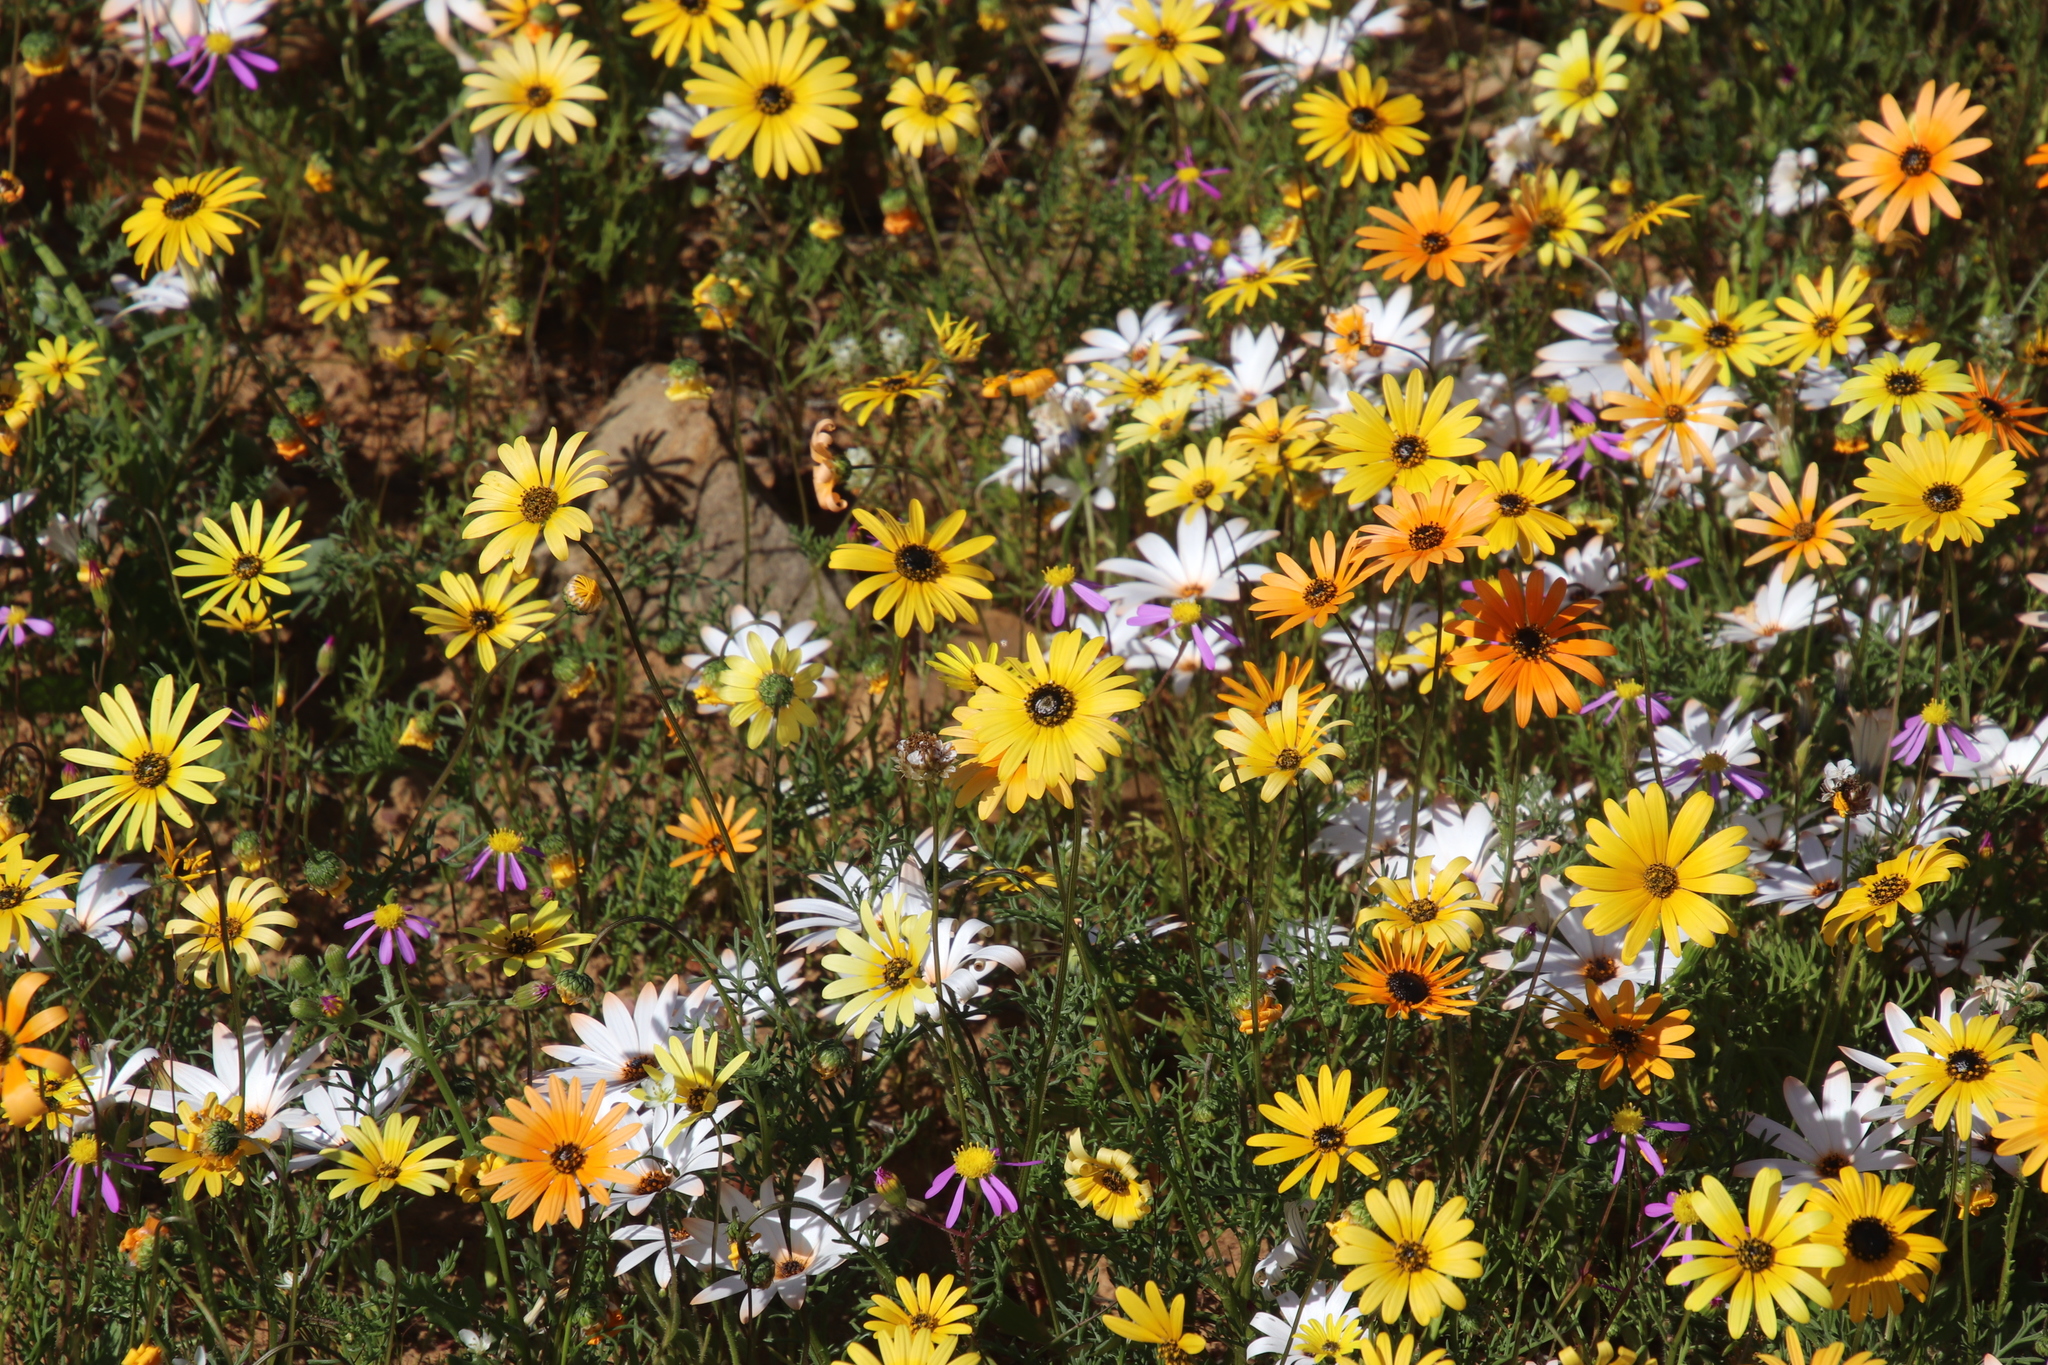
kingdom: Plantae
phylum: Tracheophyta
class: Magnoliopsida
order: Asterales
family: Asteraceae
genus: Dimorphotheca
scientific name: Dimorphotheca sinuata
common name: Glandular cape marigold
